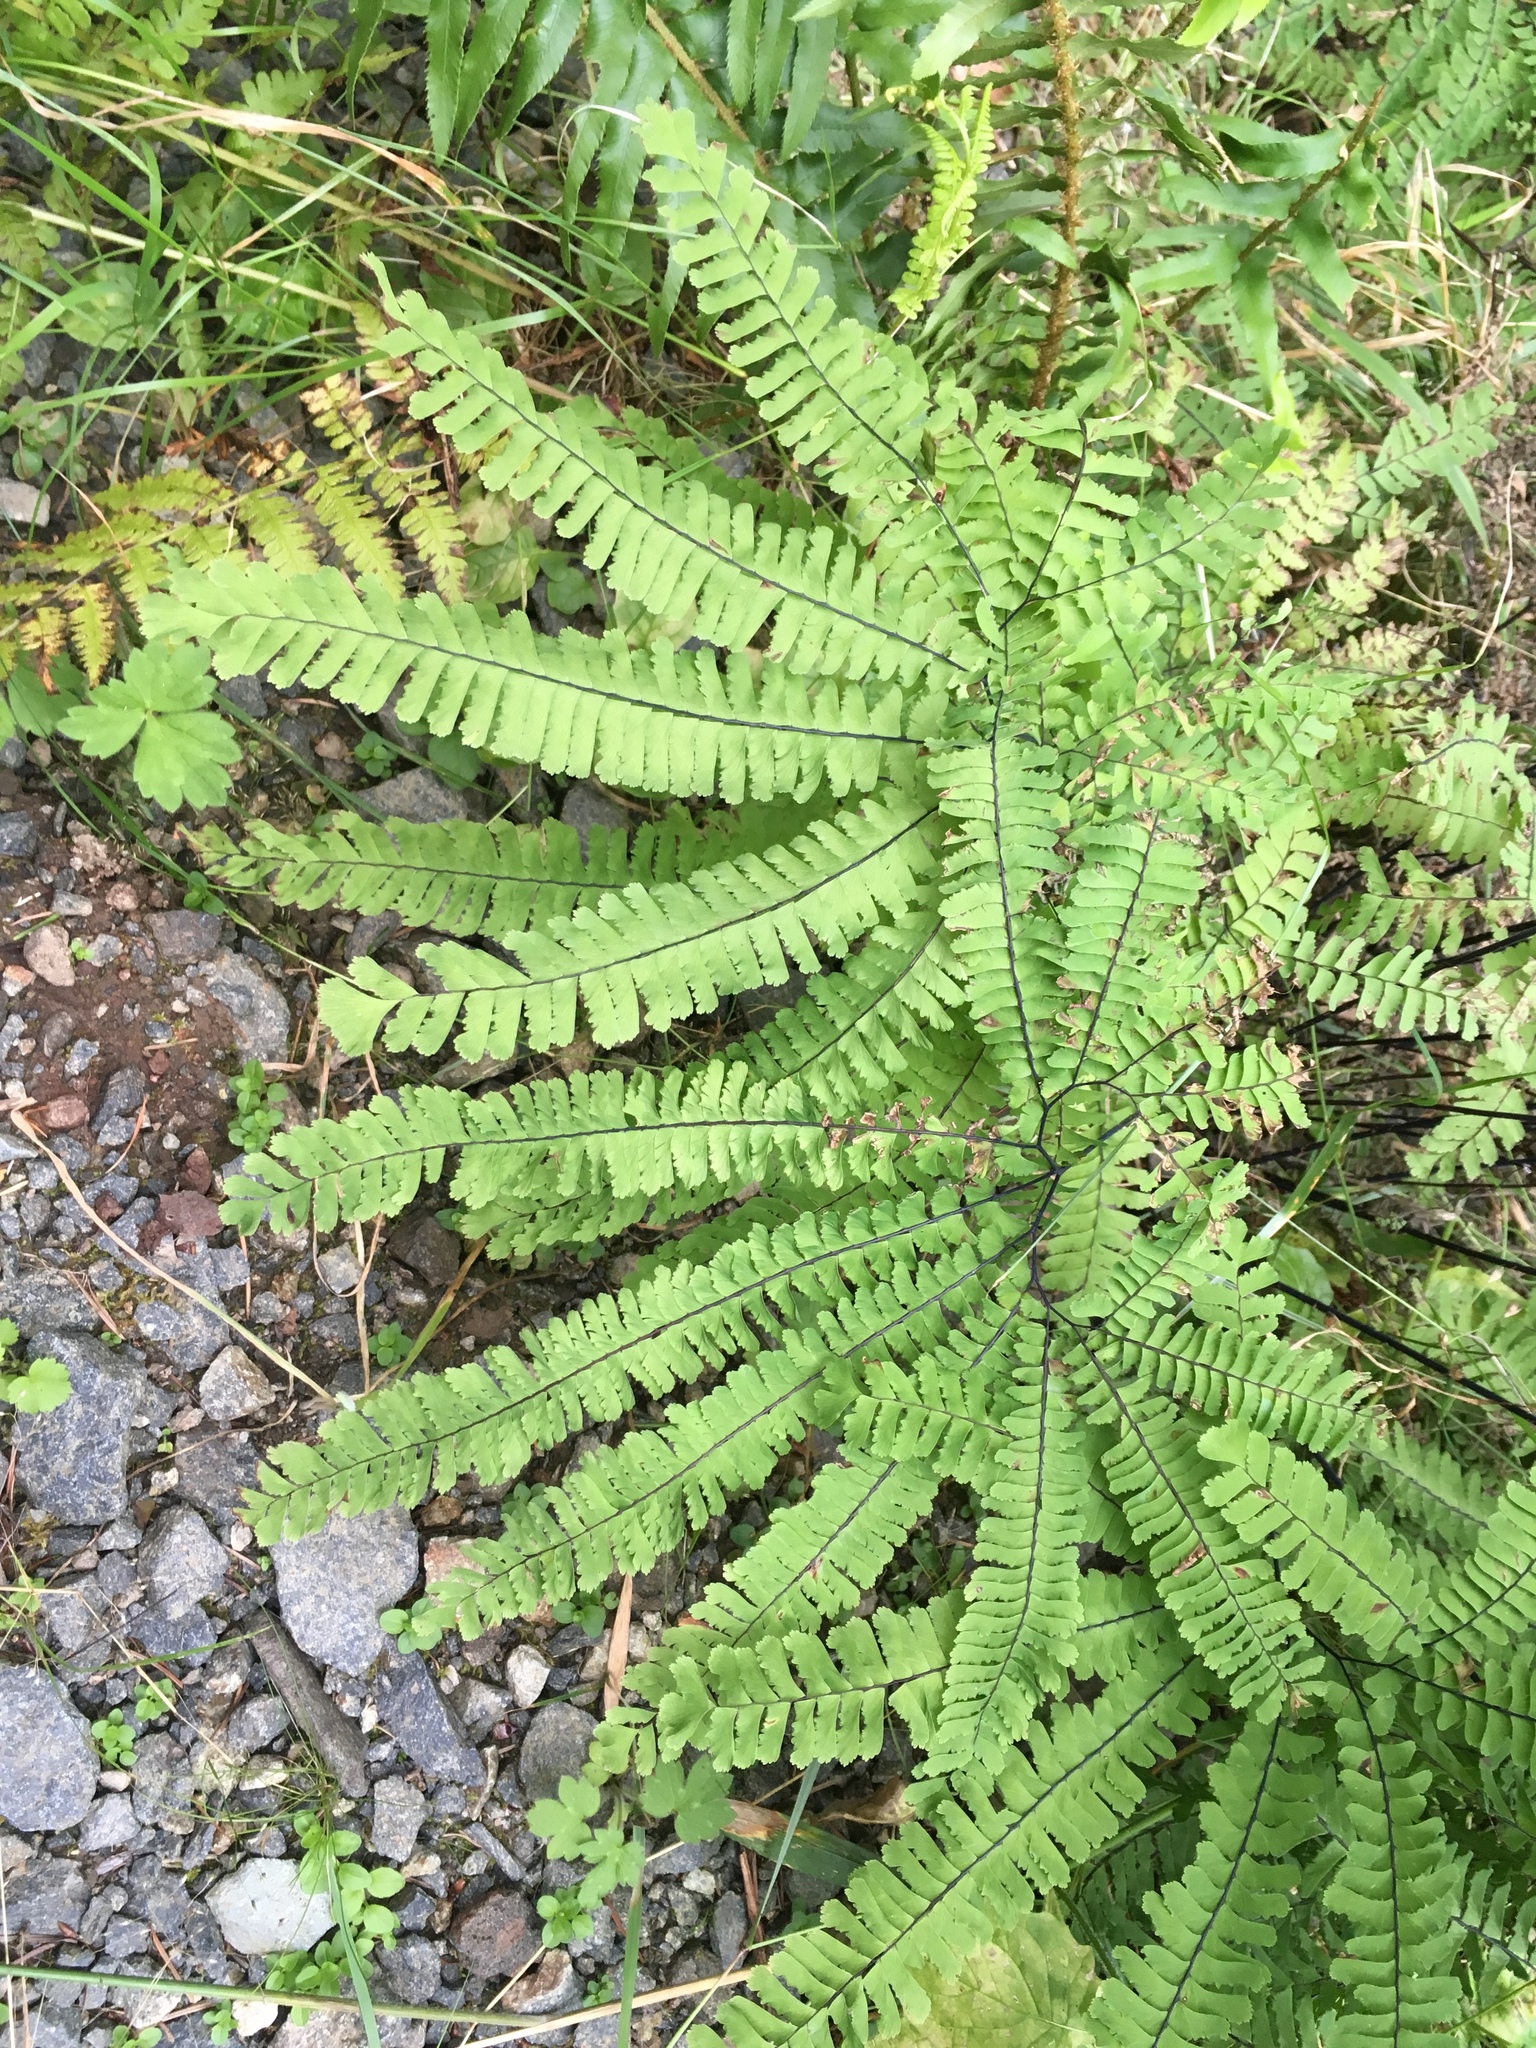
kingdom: Plantae
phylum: Tracheophyta
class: Polypodiopsida
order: Polypodiales
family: Pteridaceae
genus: Adiantum
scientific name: Adiantum aleuticum
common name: Aleutian maidenhair fern
